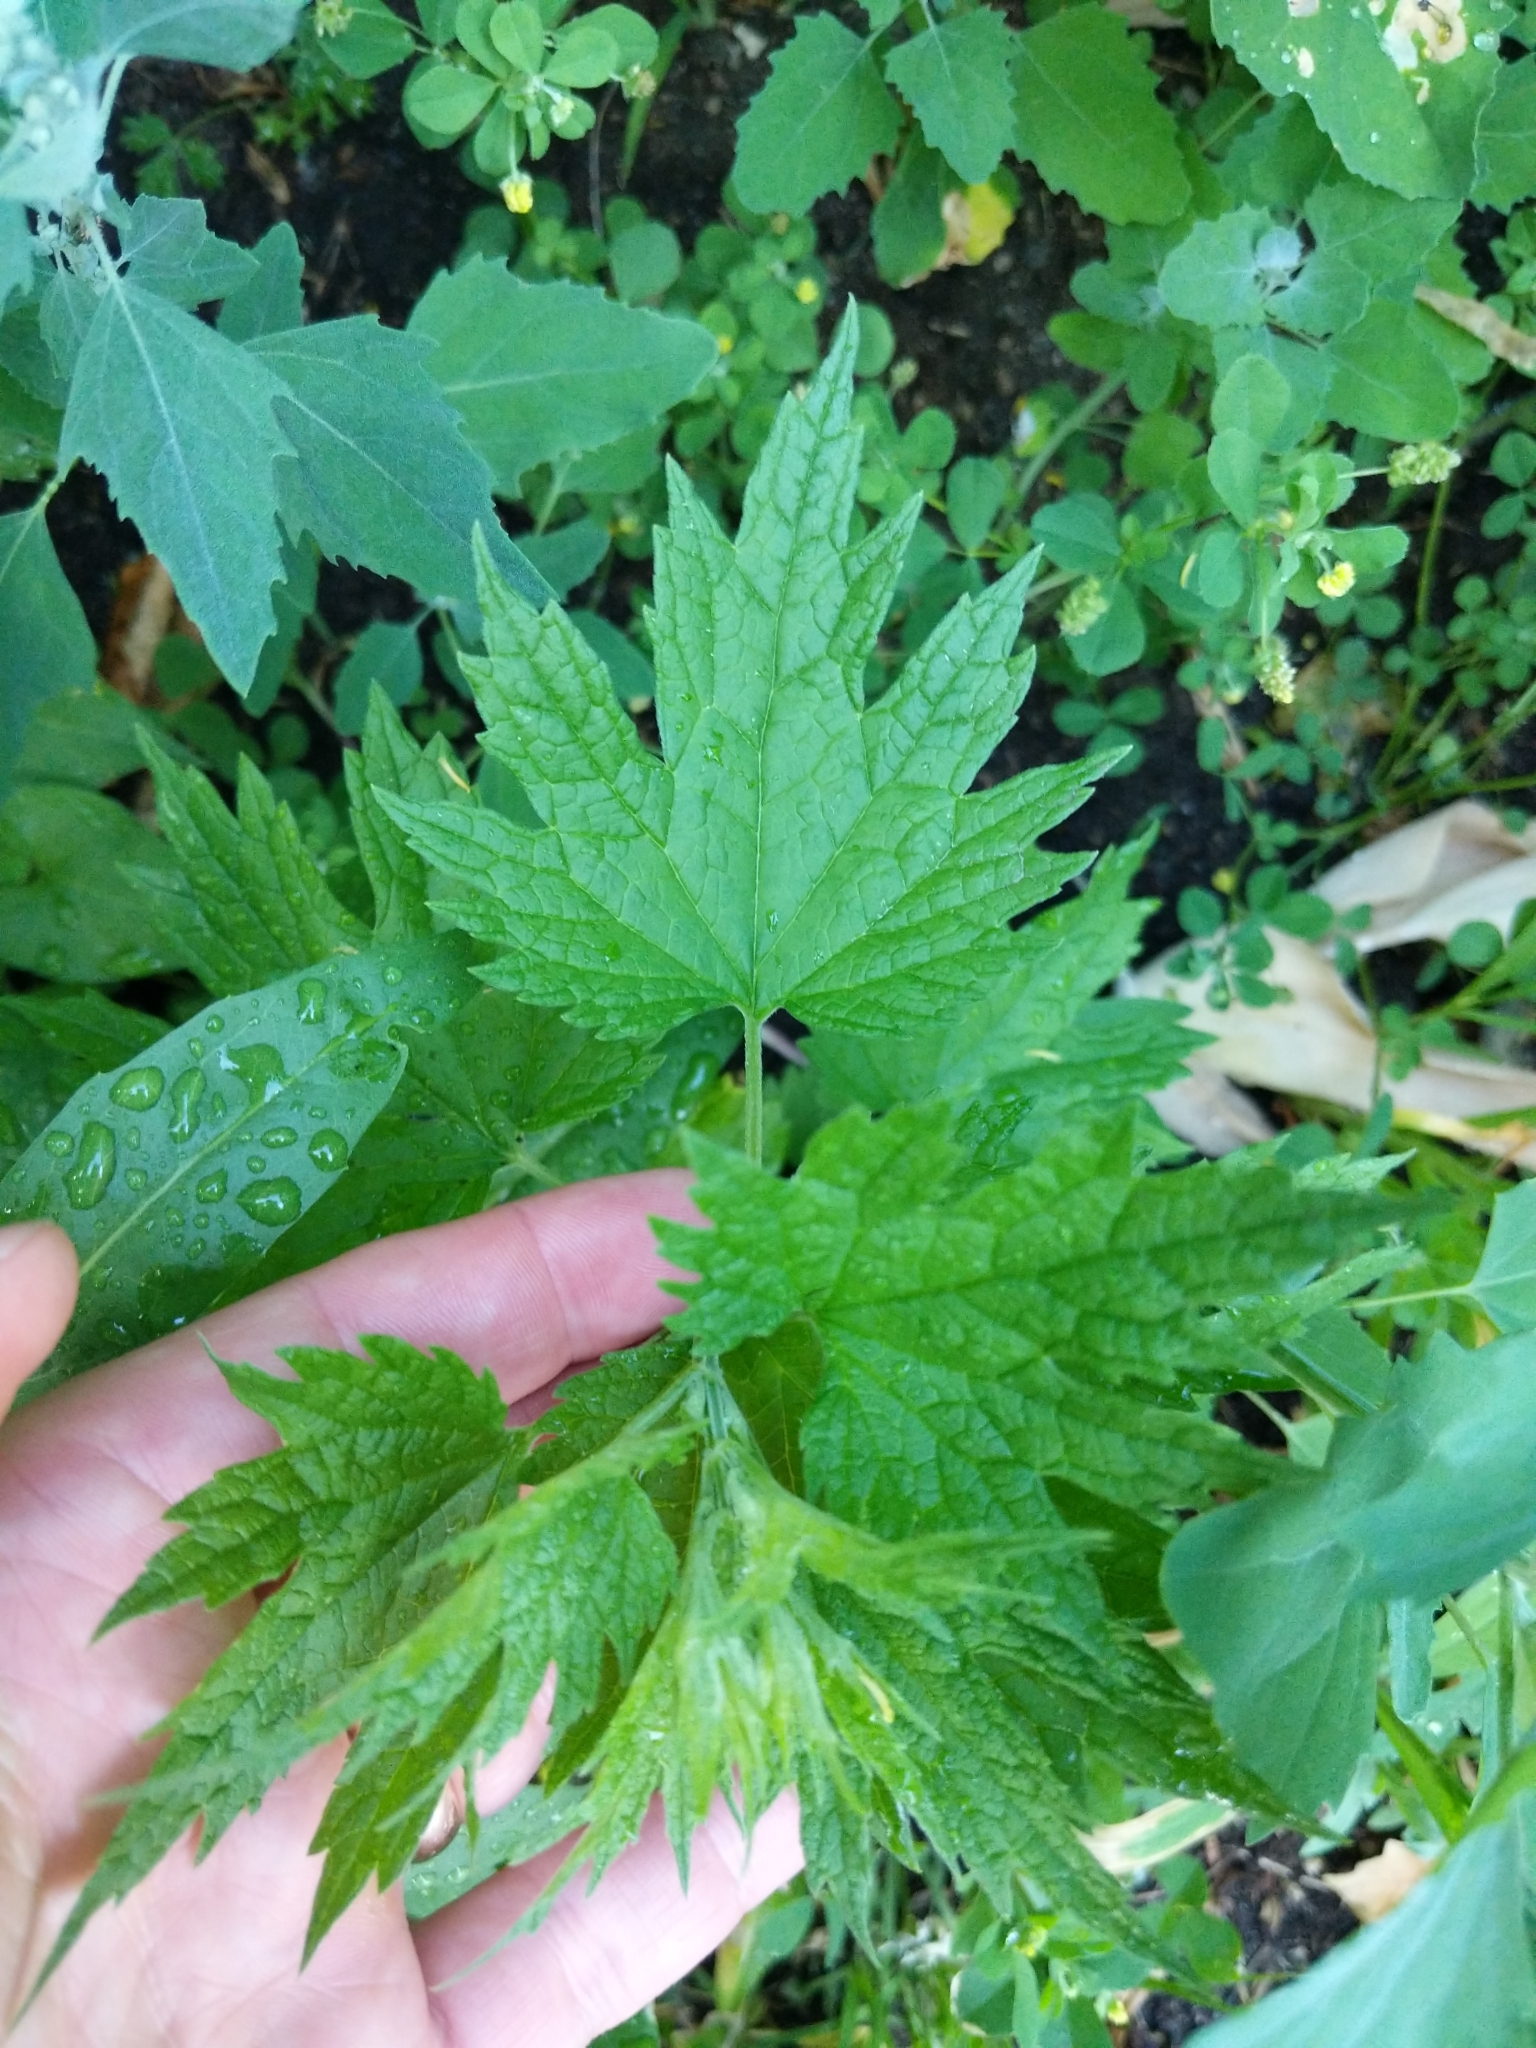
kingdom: Plantae
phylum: Tracheophyta
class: Magnoliopsida
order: Lamiales
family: Lamiaceae
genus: Leonurus
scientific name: Leonurus cardiaca
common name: Motherwort
